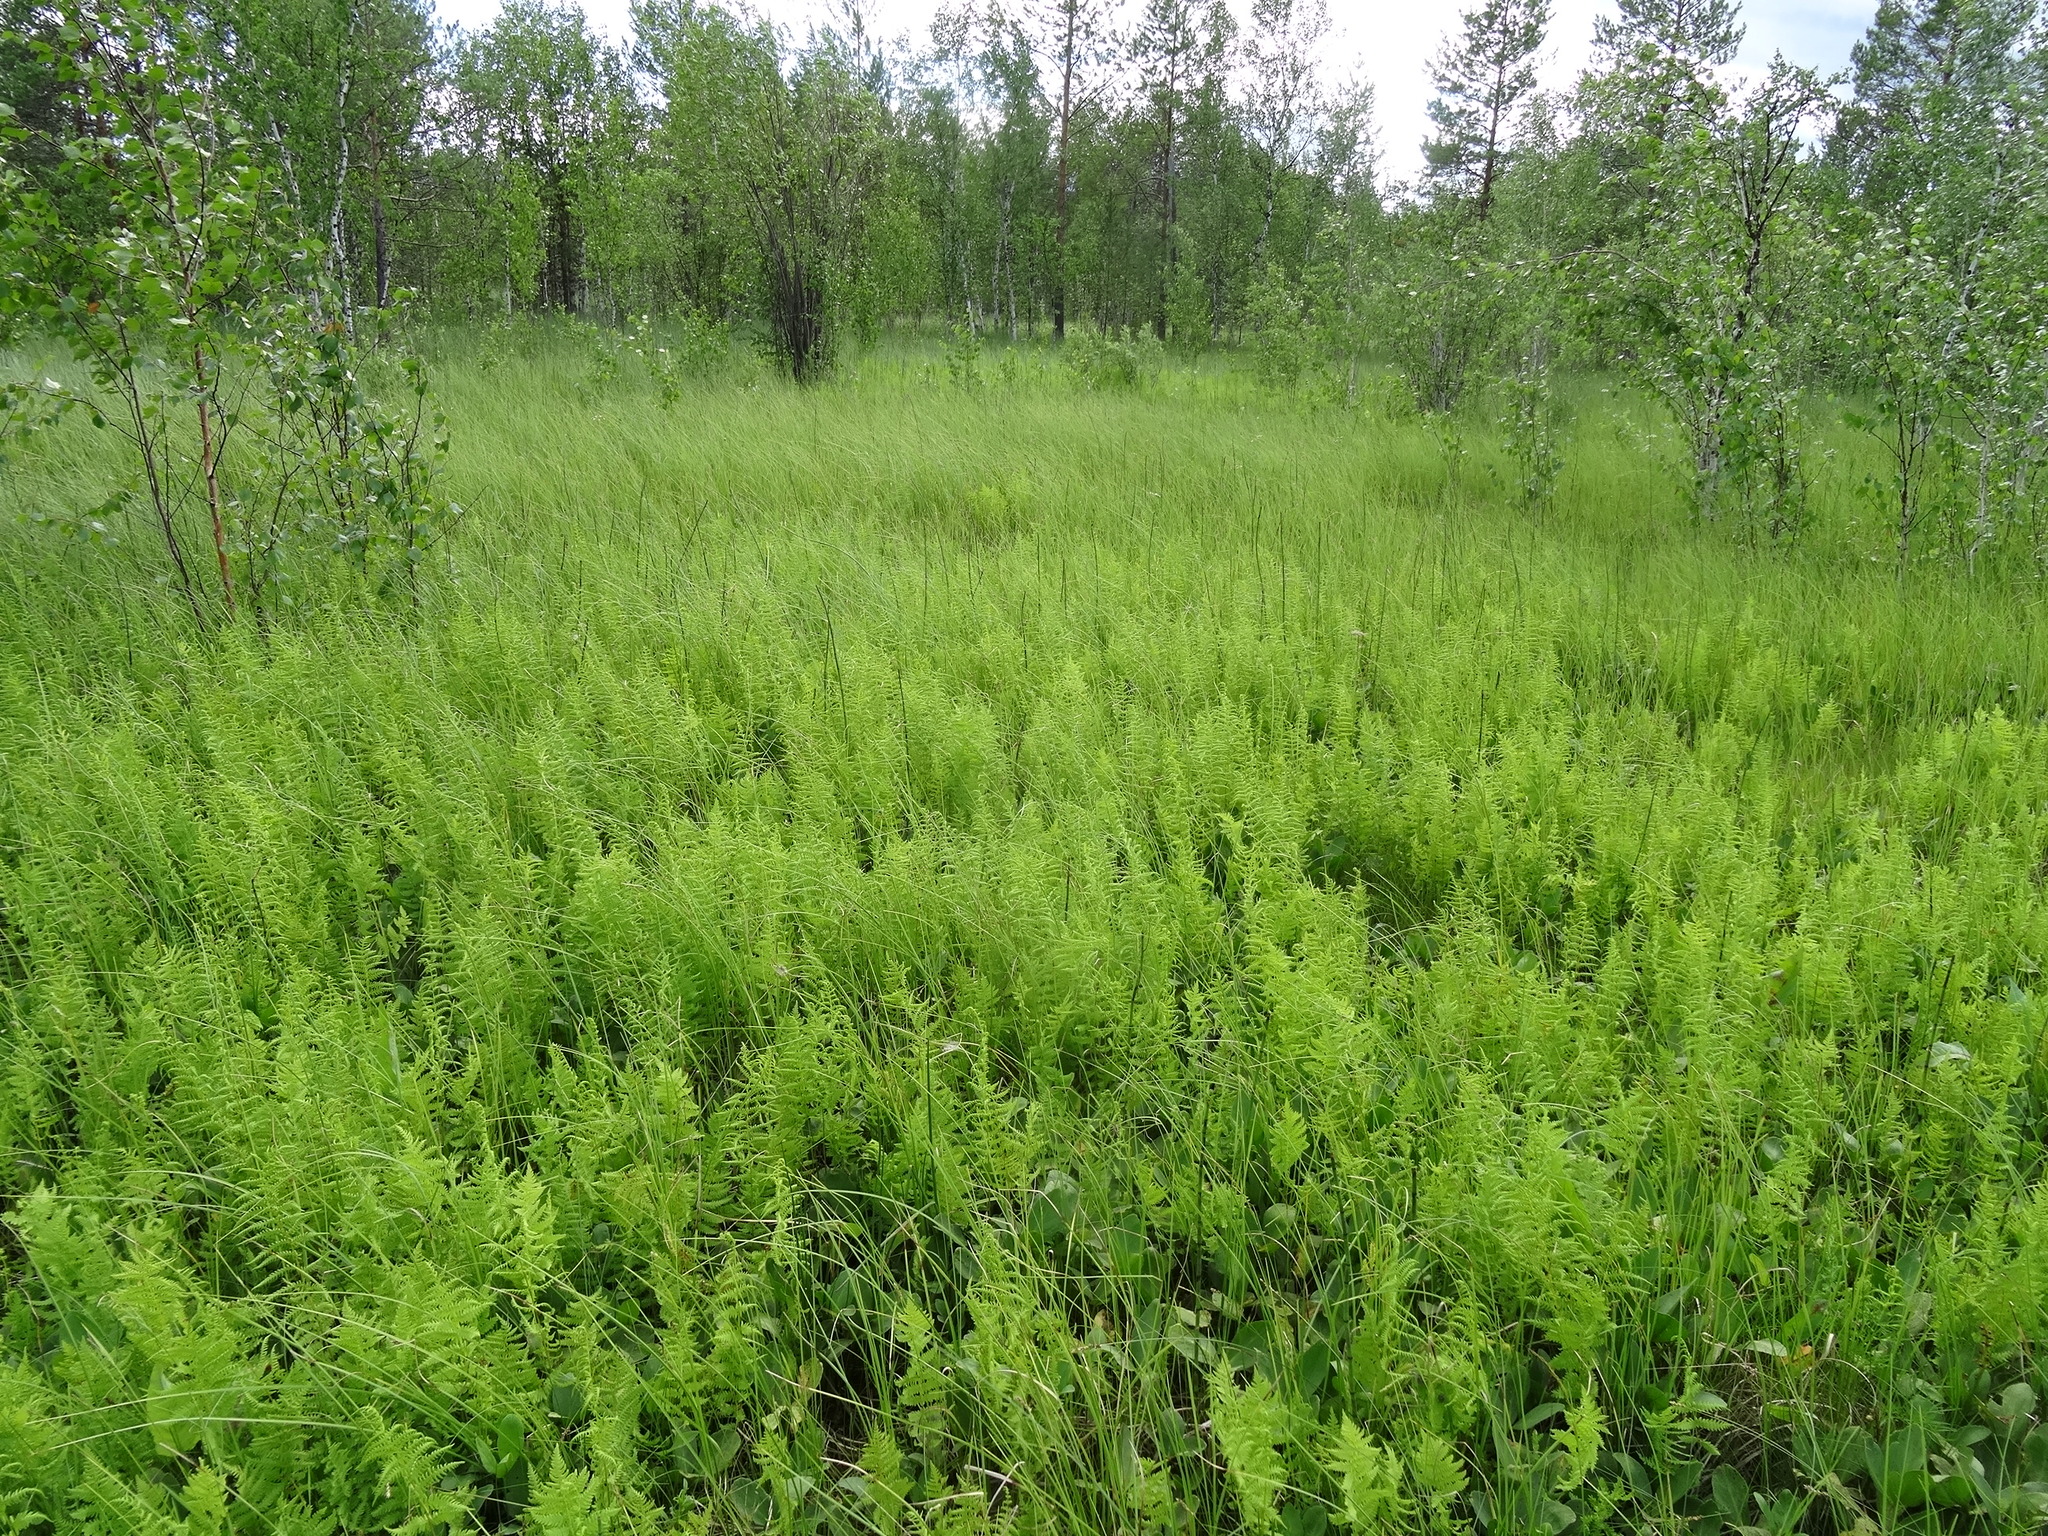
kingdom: Plantae
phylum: Tracheophyta
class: Polypodiopsida
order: Polypodiales
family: Thelypteridaceae
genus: Thelypteris
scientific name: Thelypteris palustris
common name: Marsh fern
